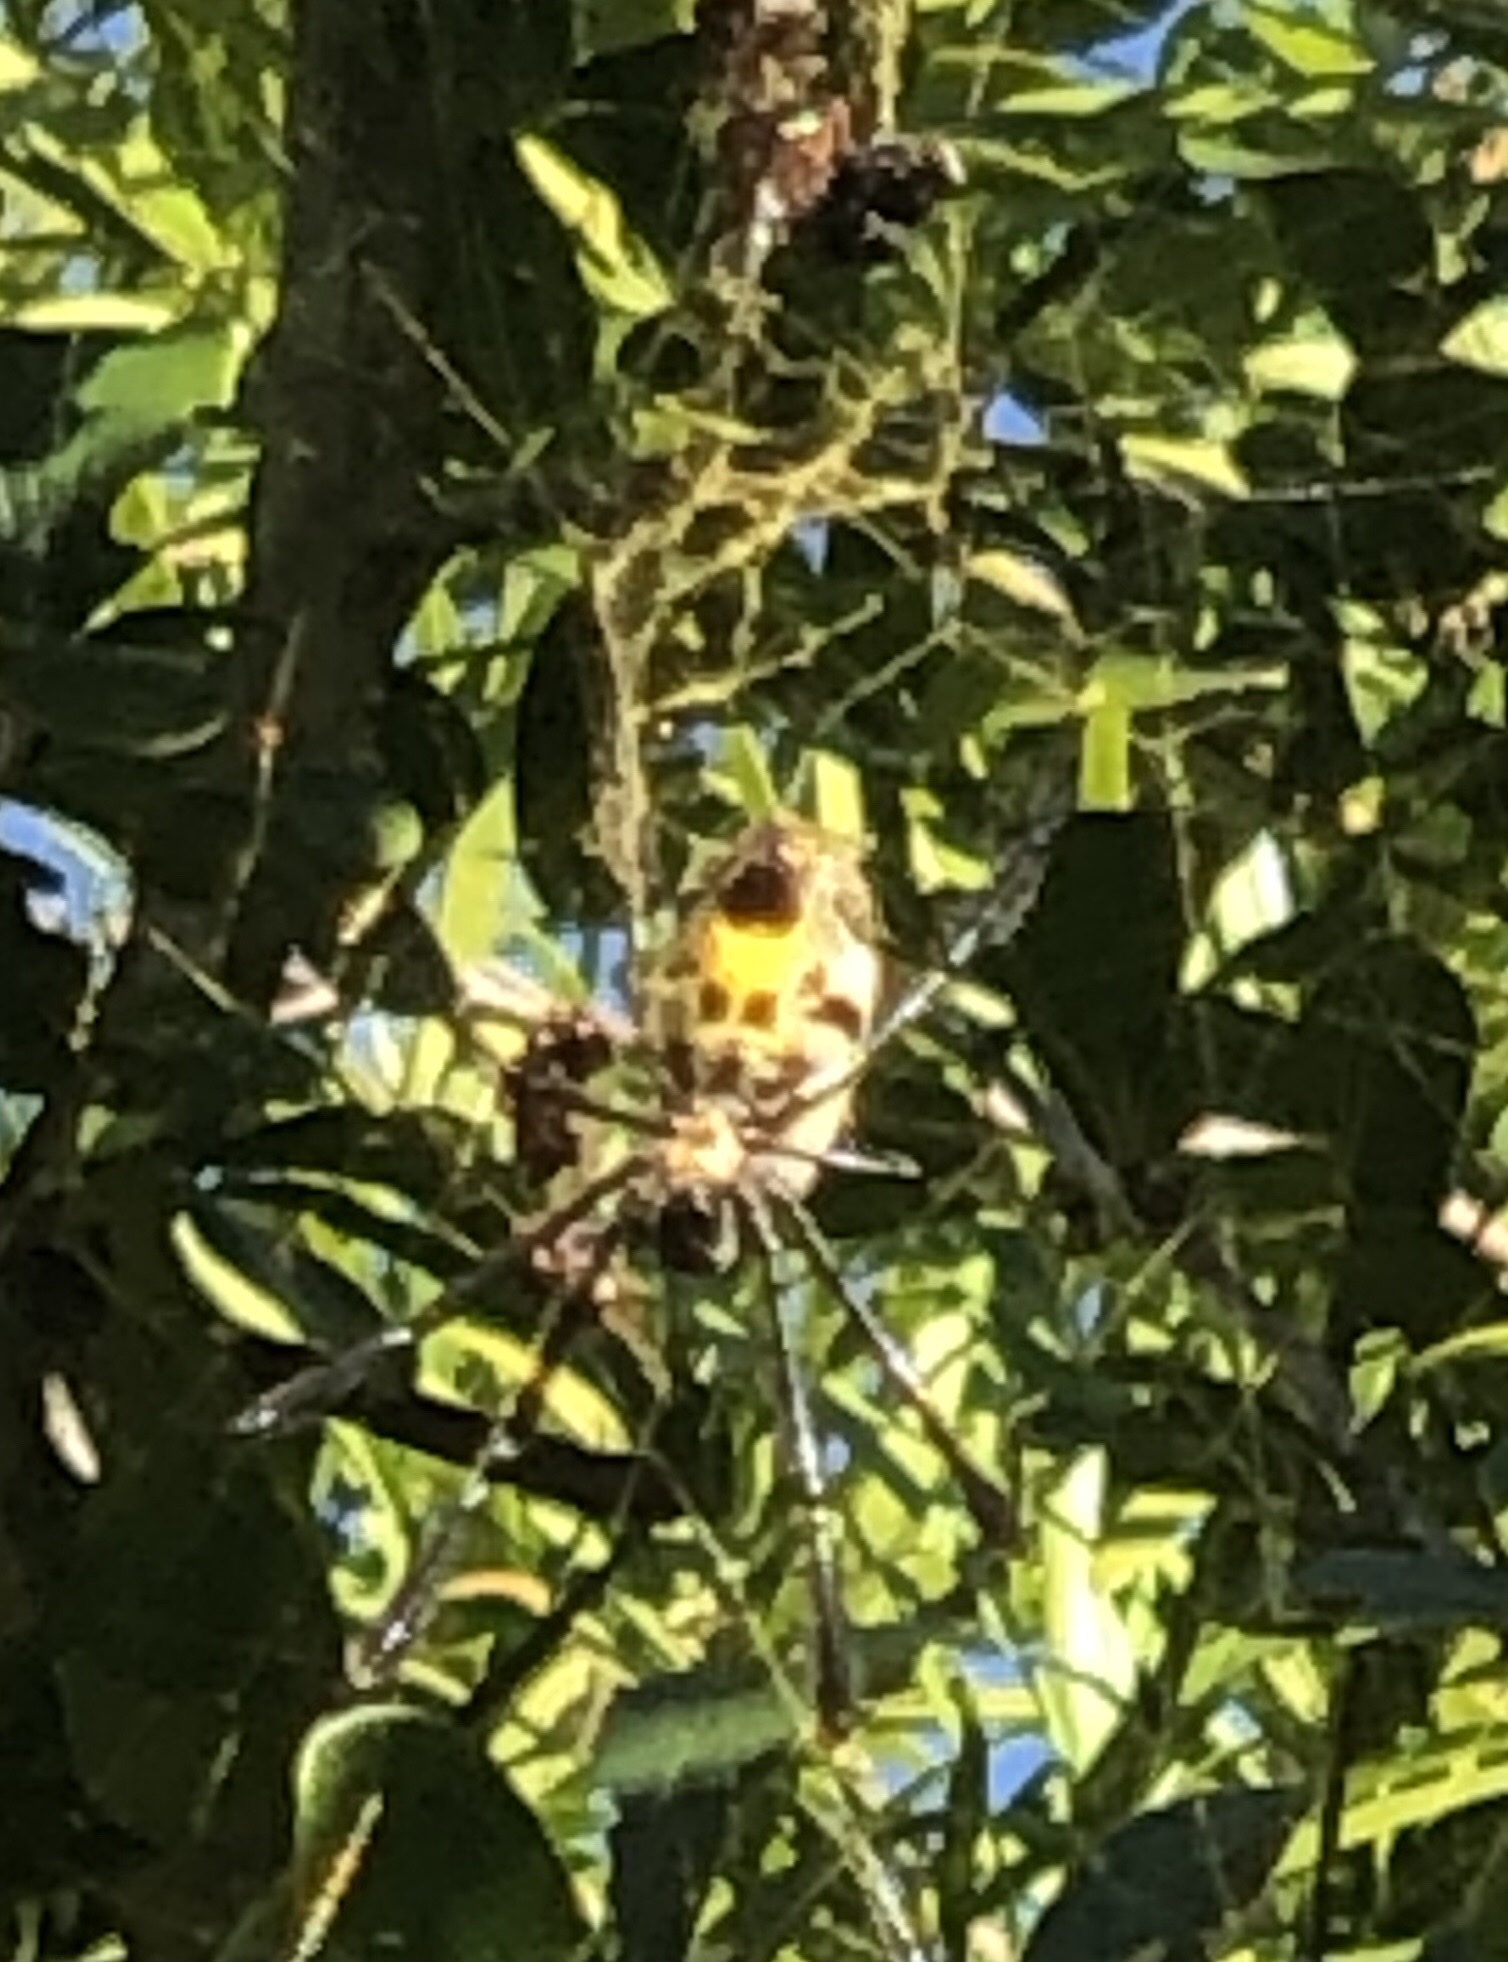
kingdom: Animalia
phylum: Arthropoda
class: Arachnida
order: Araneae
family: Araneidae
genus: Trichonephila
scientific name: Trichonephila fenestrata
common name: Hairy golden orb weaver
